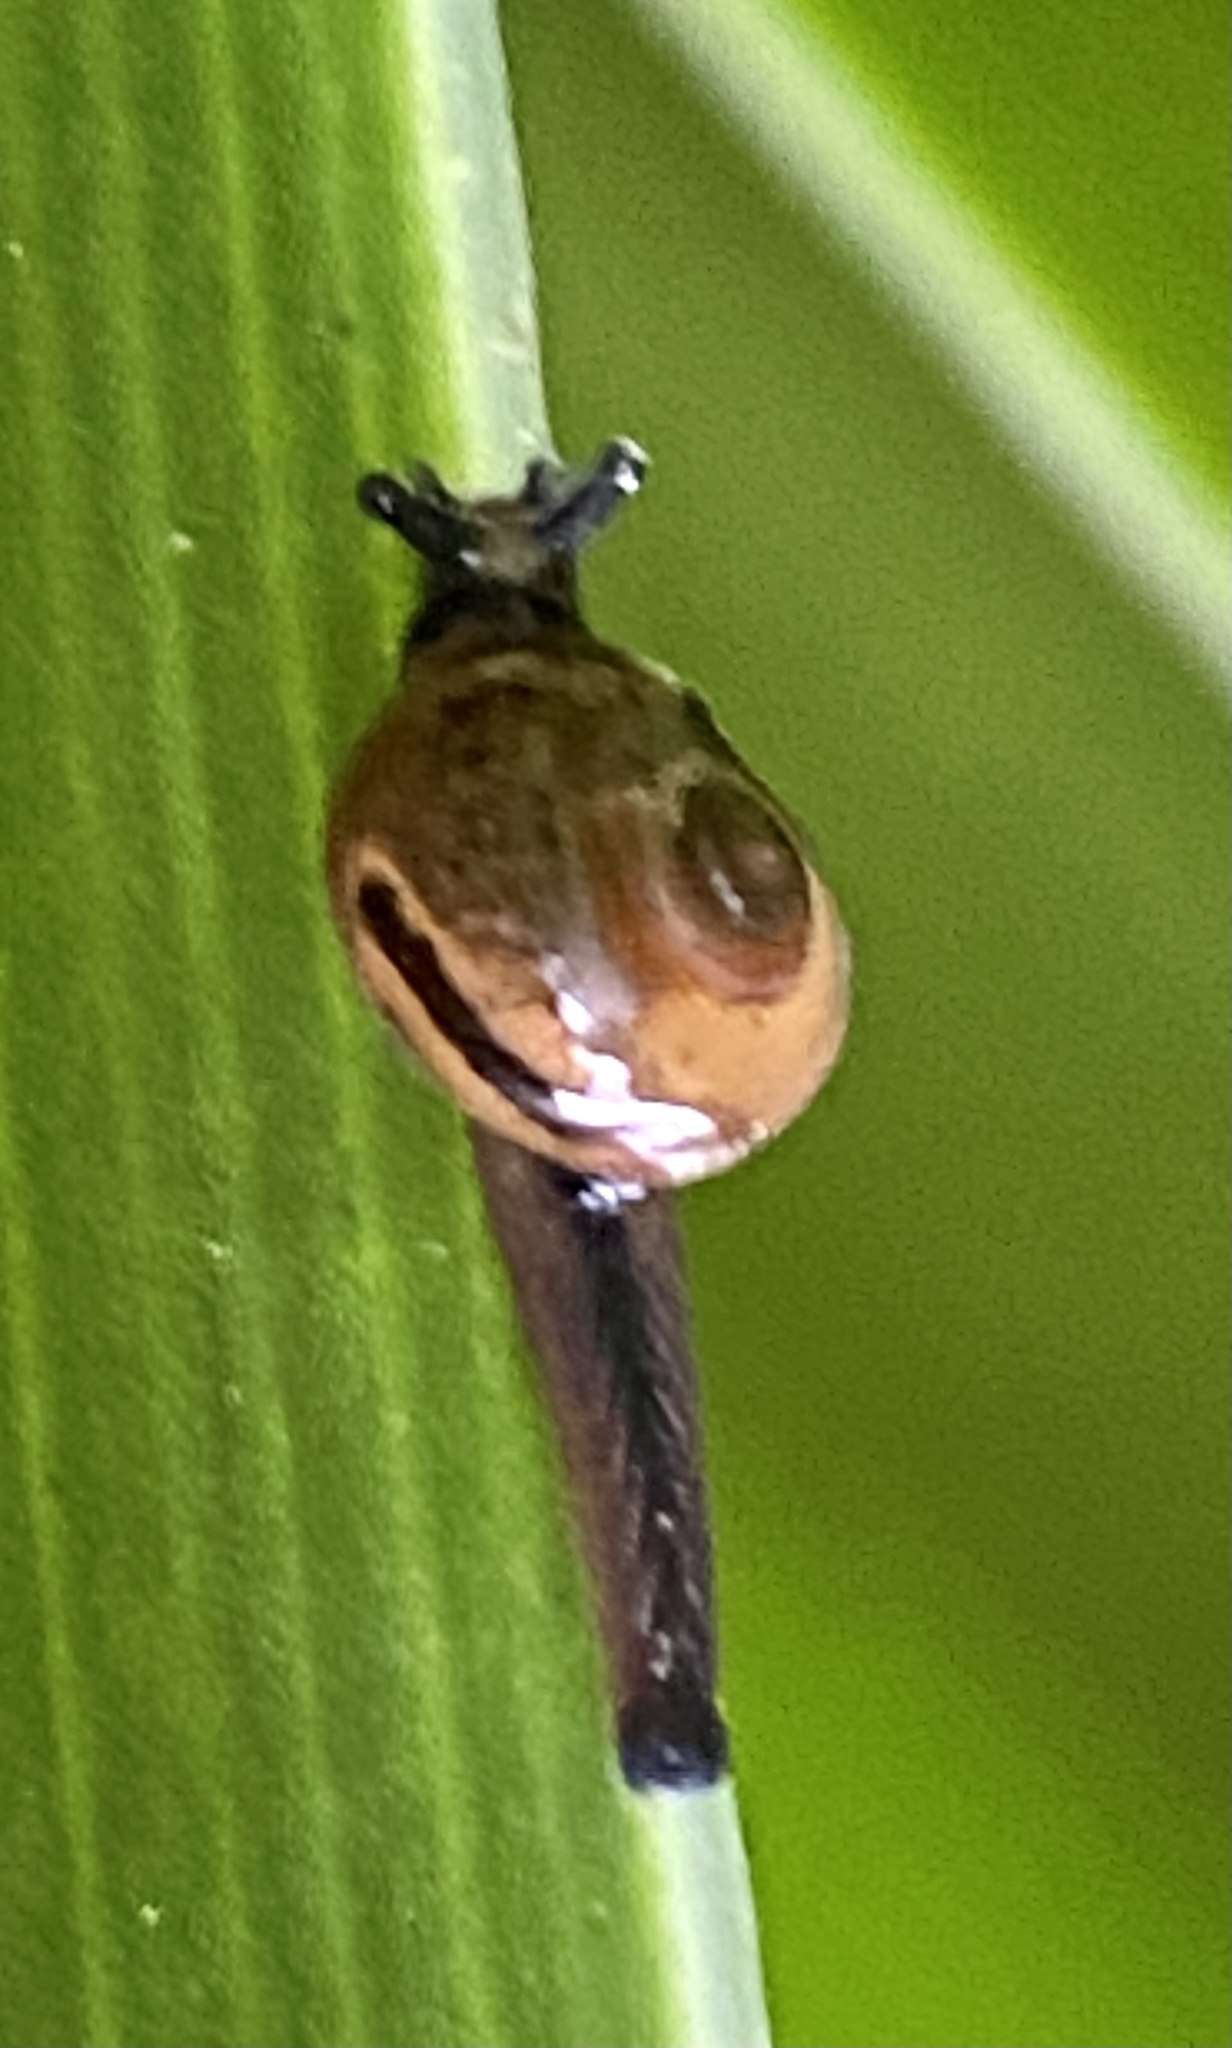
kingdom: Animalia
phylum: Mollusca
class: Gastropoda
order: Stylommatophora
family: Helicarionidae
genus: Ovachlamys
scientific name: Ovachlamys fulgens
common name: Jumping snail
